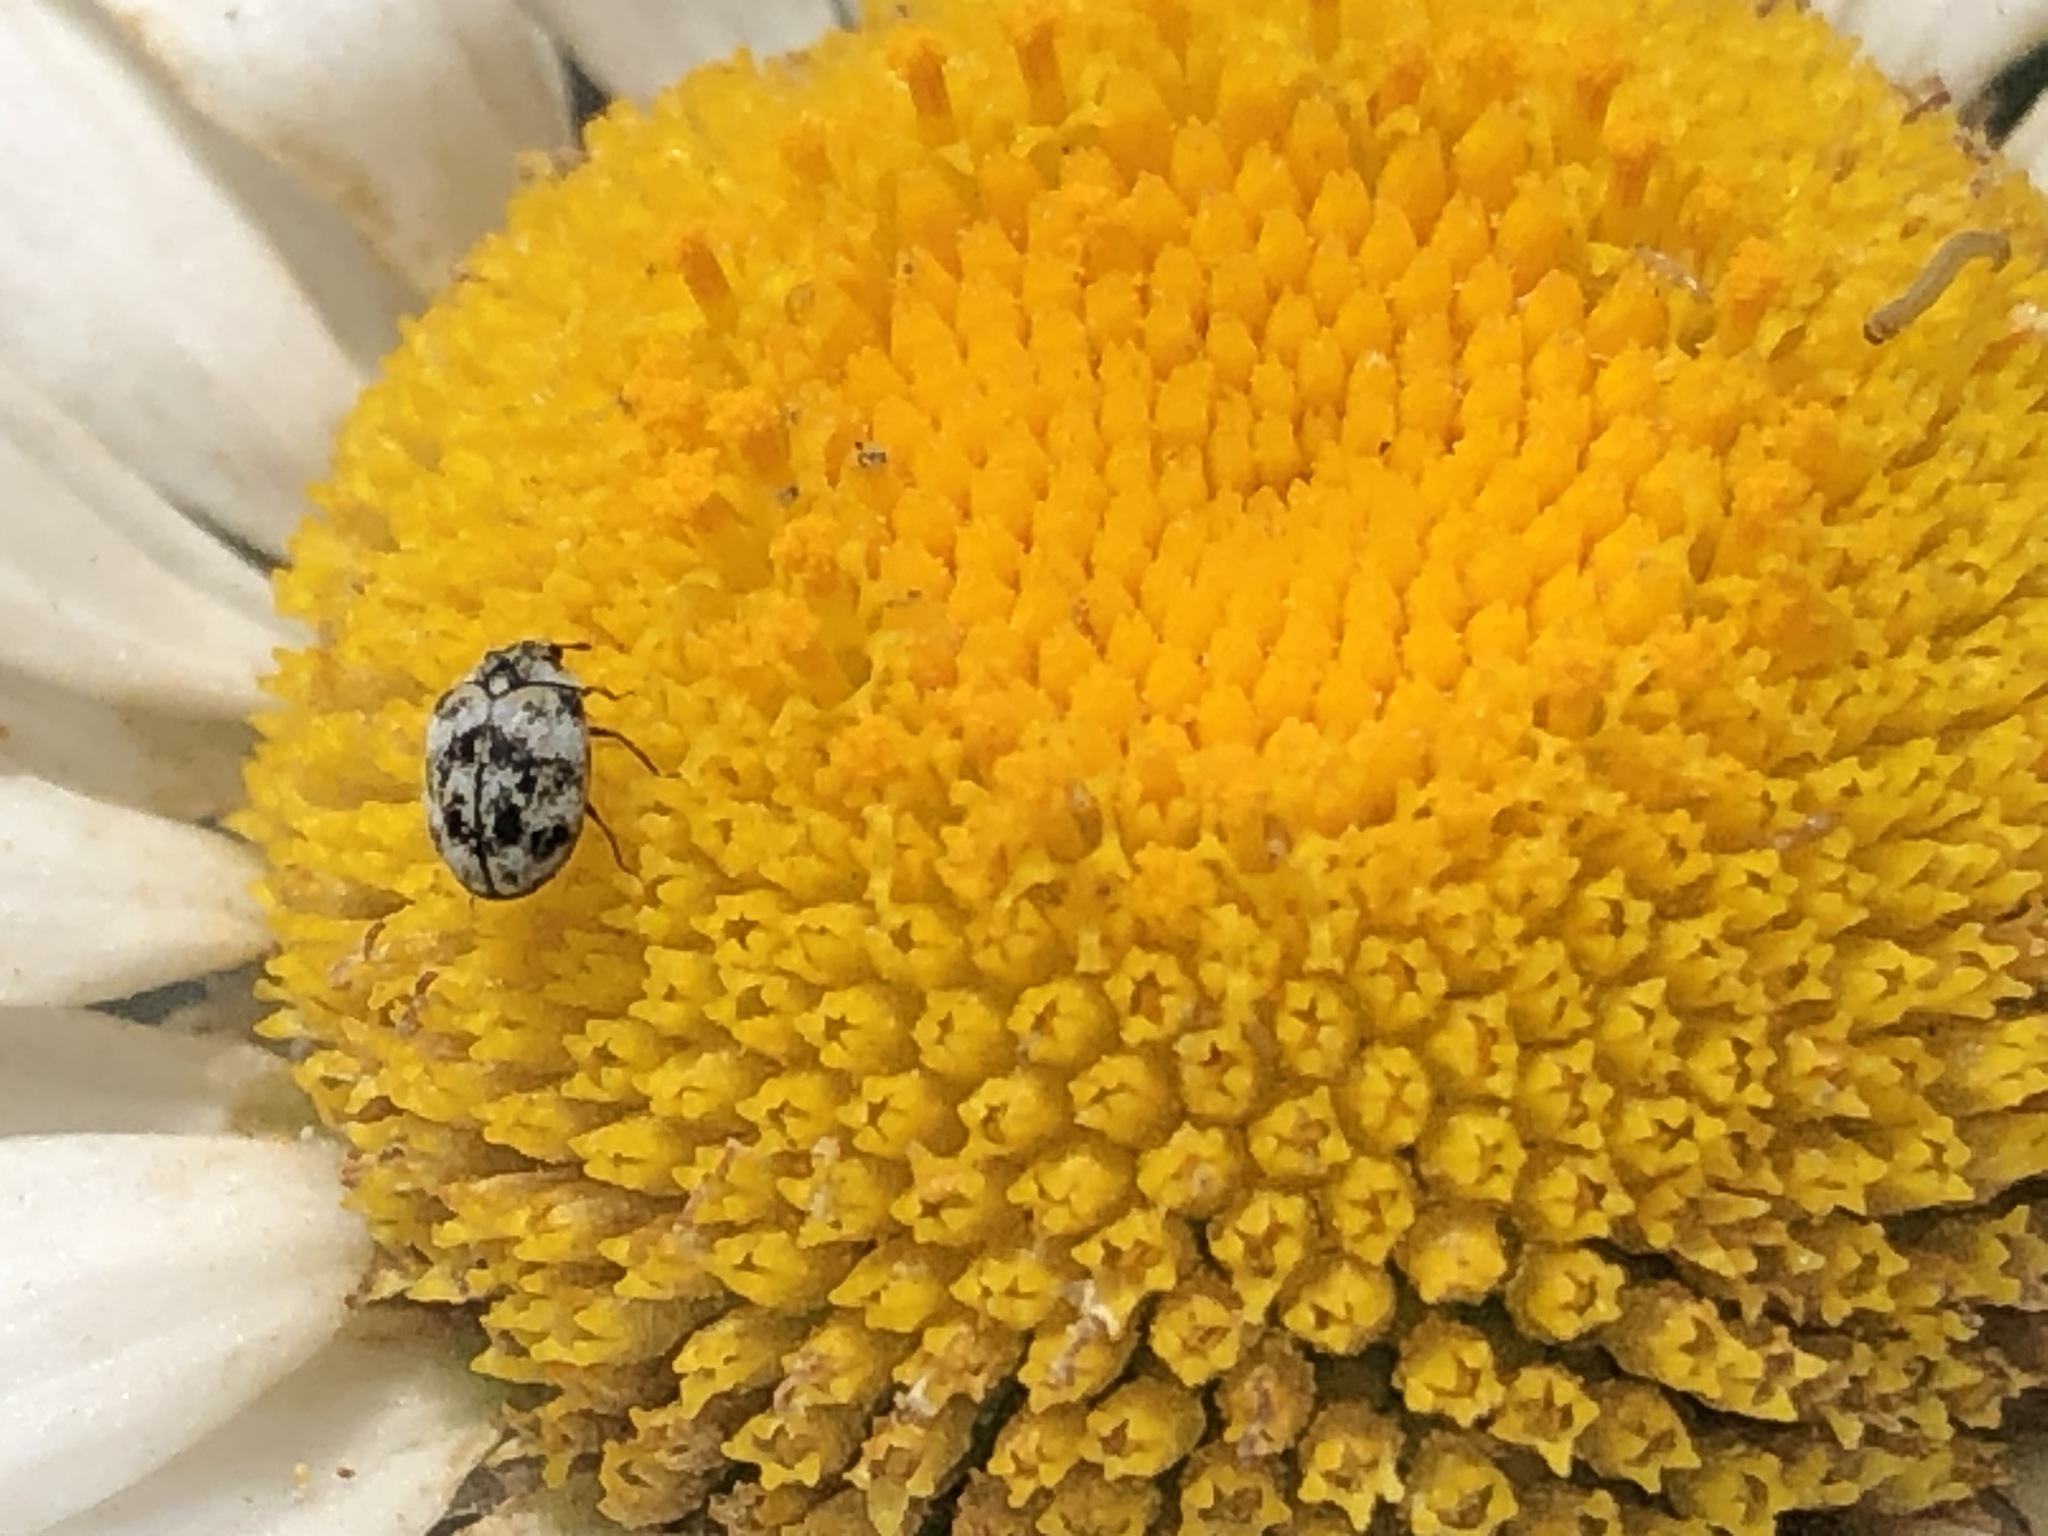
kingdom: Animalia
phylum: Arthropoda
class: Insecta
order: Coleoptera
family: Dermestidae
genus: Anthrenus
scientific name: Anthrenus verbasci
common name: Varied carpet beetle
